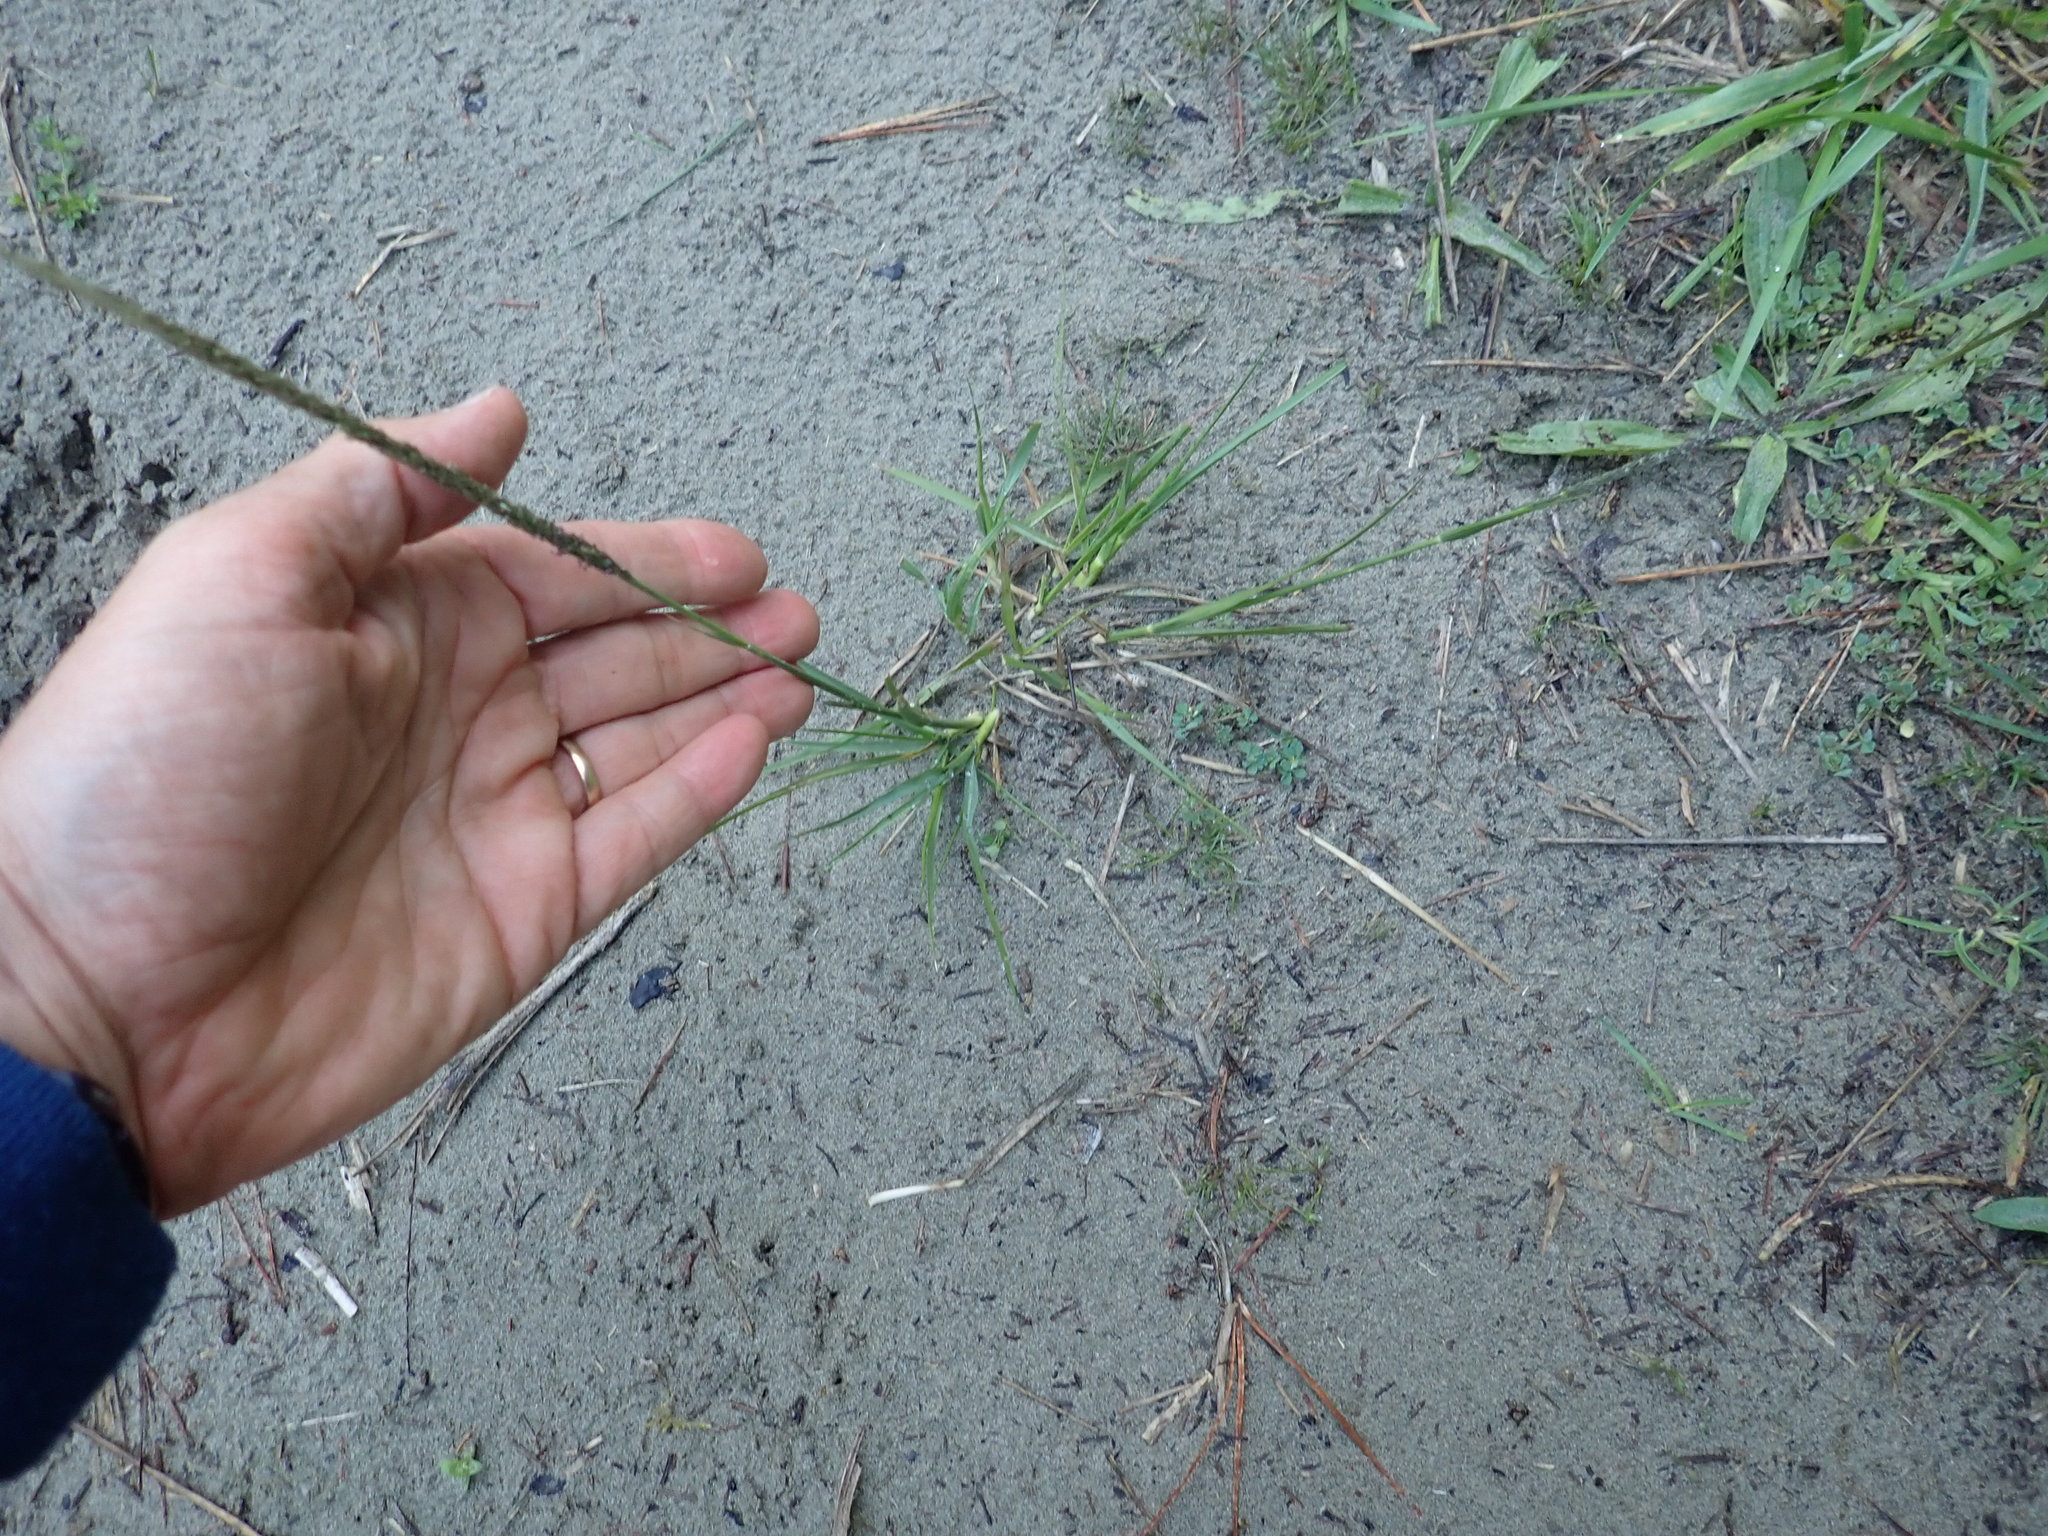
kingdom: Plantae
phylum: Tracheophyta
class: Liliopsida
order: Poales
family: Poaceae
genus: Sporobolus
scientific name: Sporobolus africanus
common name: African dropseed
